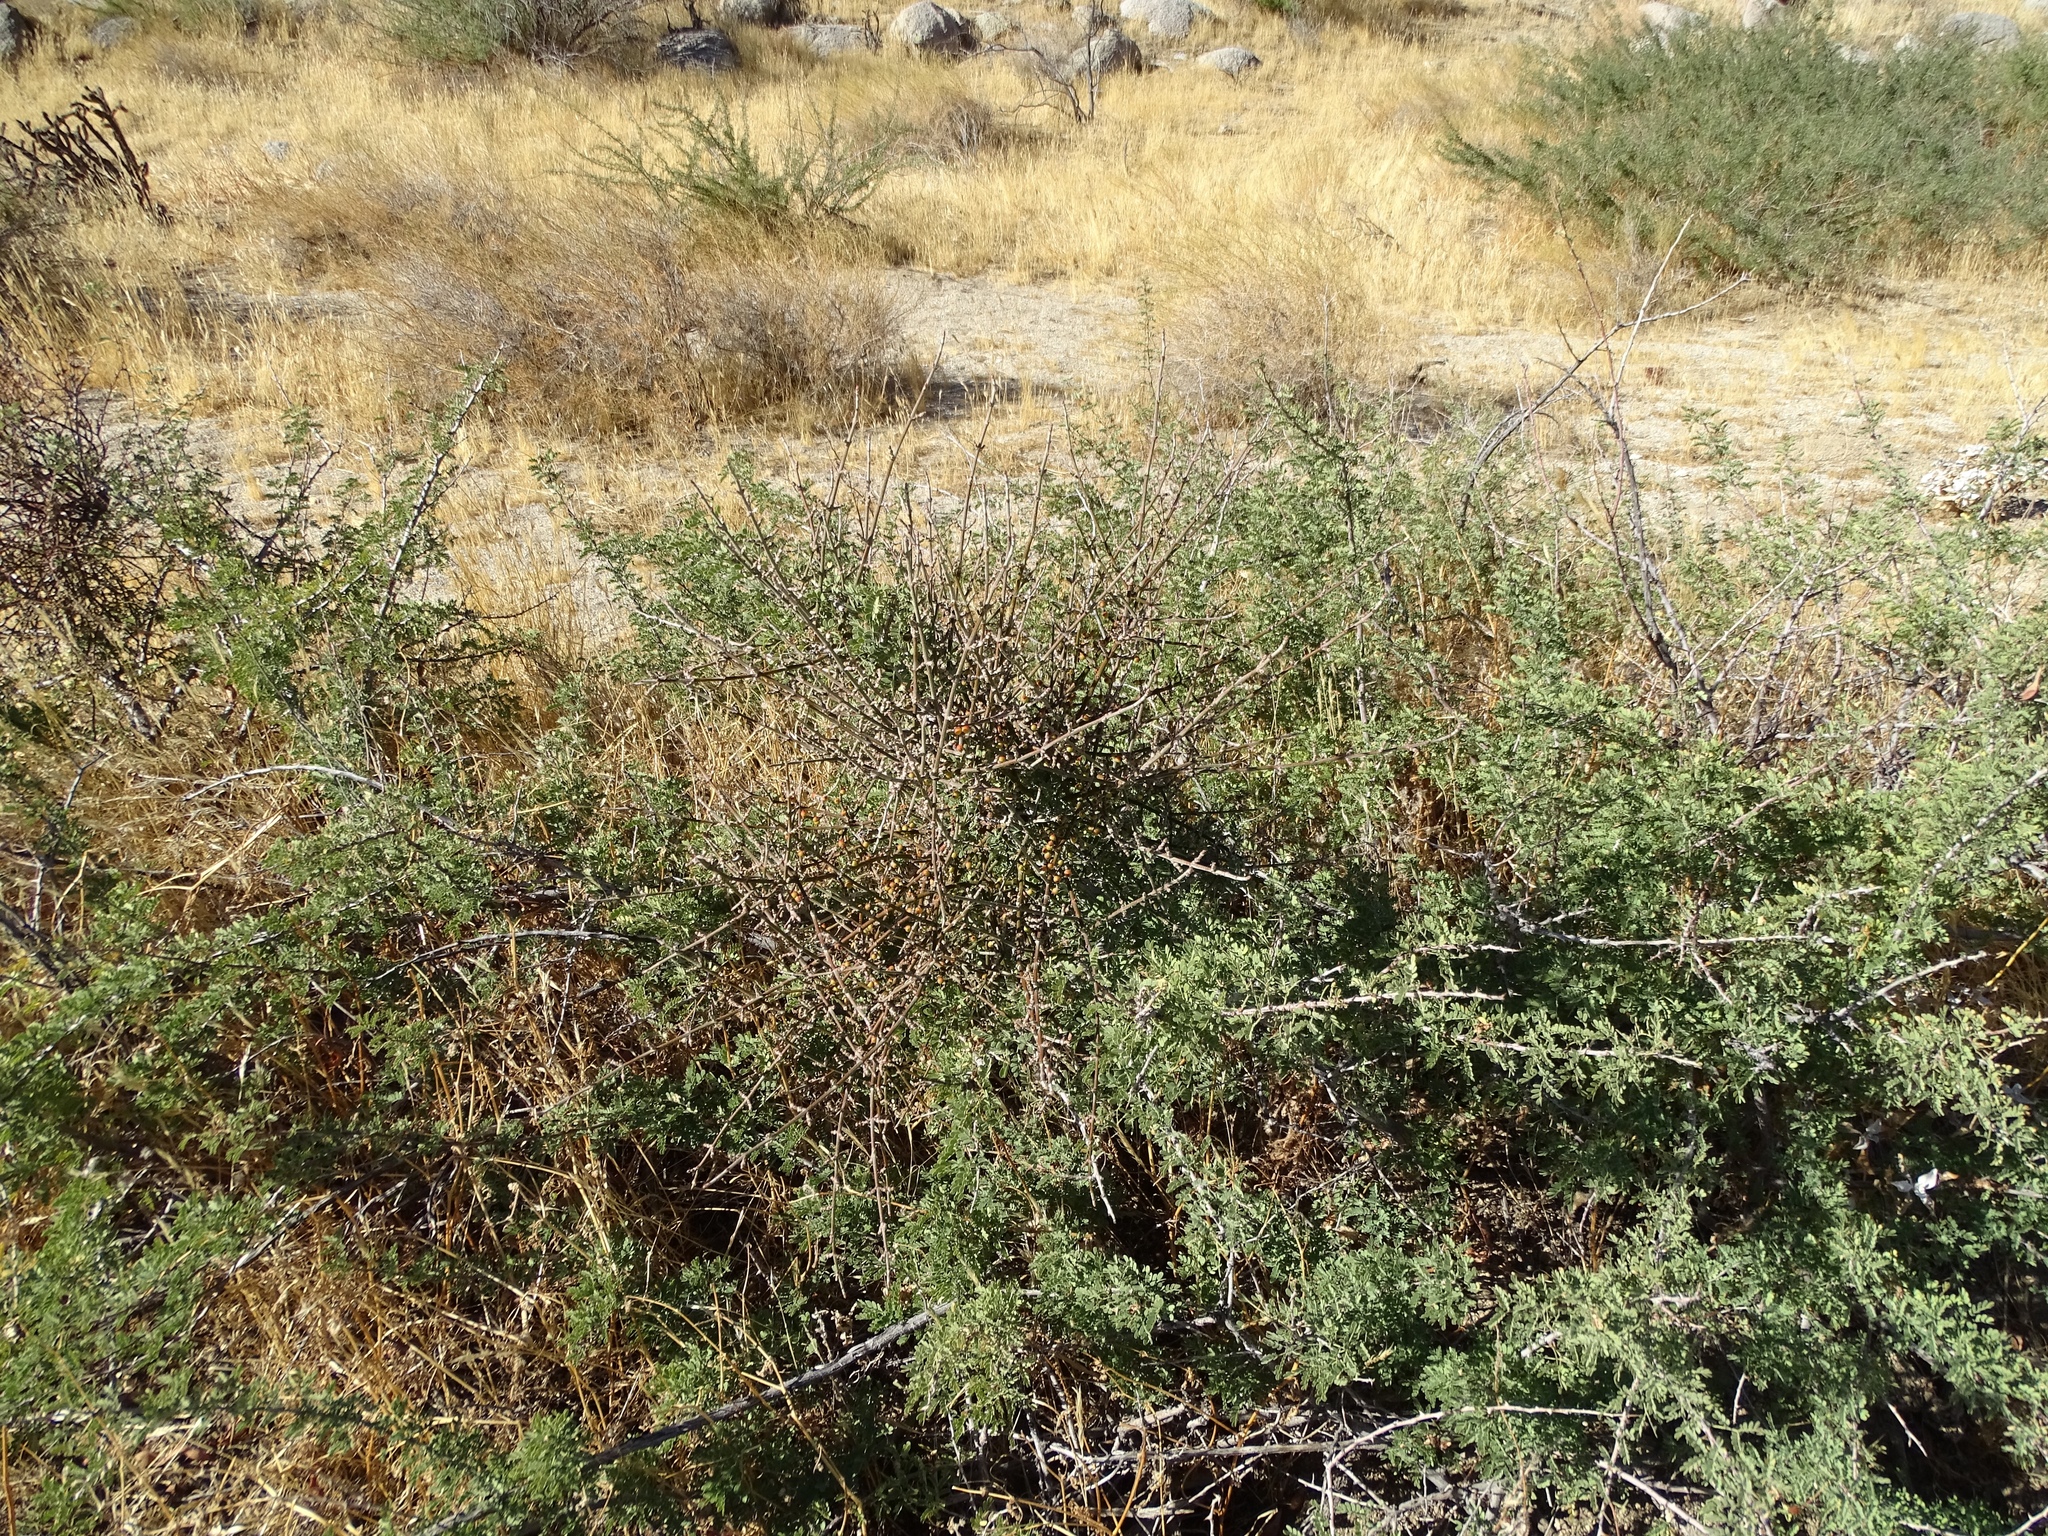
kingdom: Plantae
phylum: Tracheophyta
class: Magnoliopsida
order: Santalales
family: Viscaceae
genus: Phoradendron
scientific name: Phoradendron californicum
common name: Acacia mistletoe
